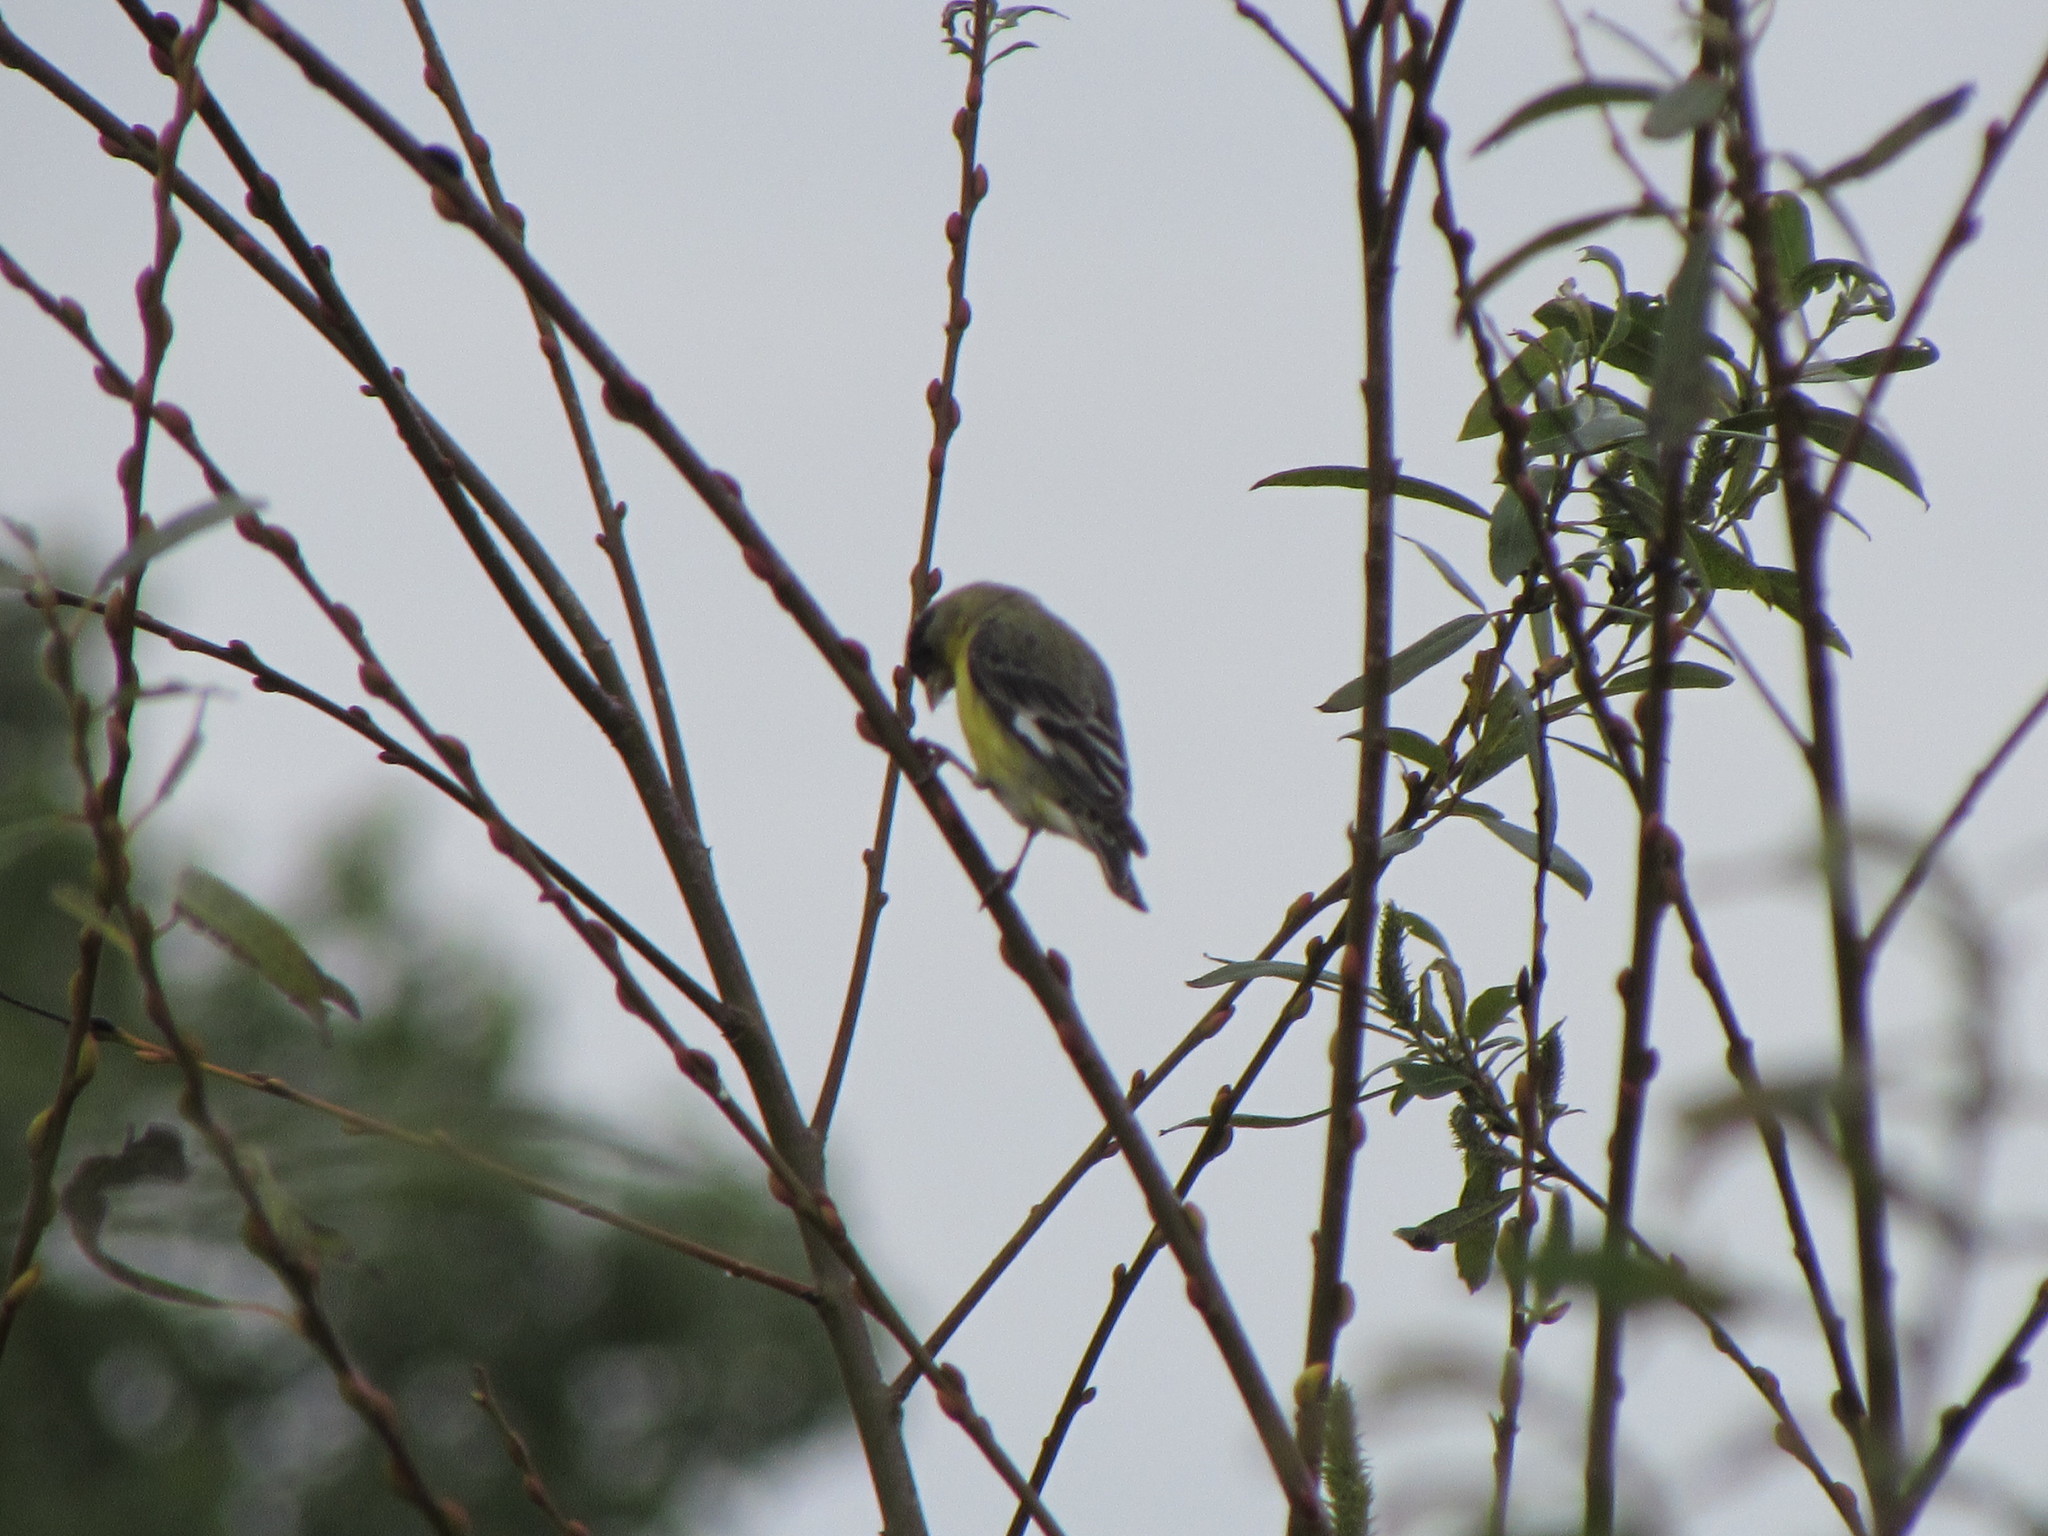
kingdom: Animalia
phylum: Chordata
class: Aves
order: Passeriformes
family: Fringillidae
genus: Spinus
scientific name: Spinus psaltria
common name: Lesser goldfinch
